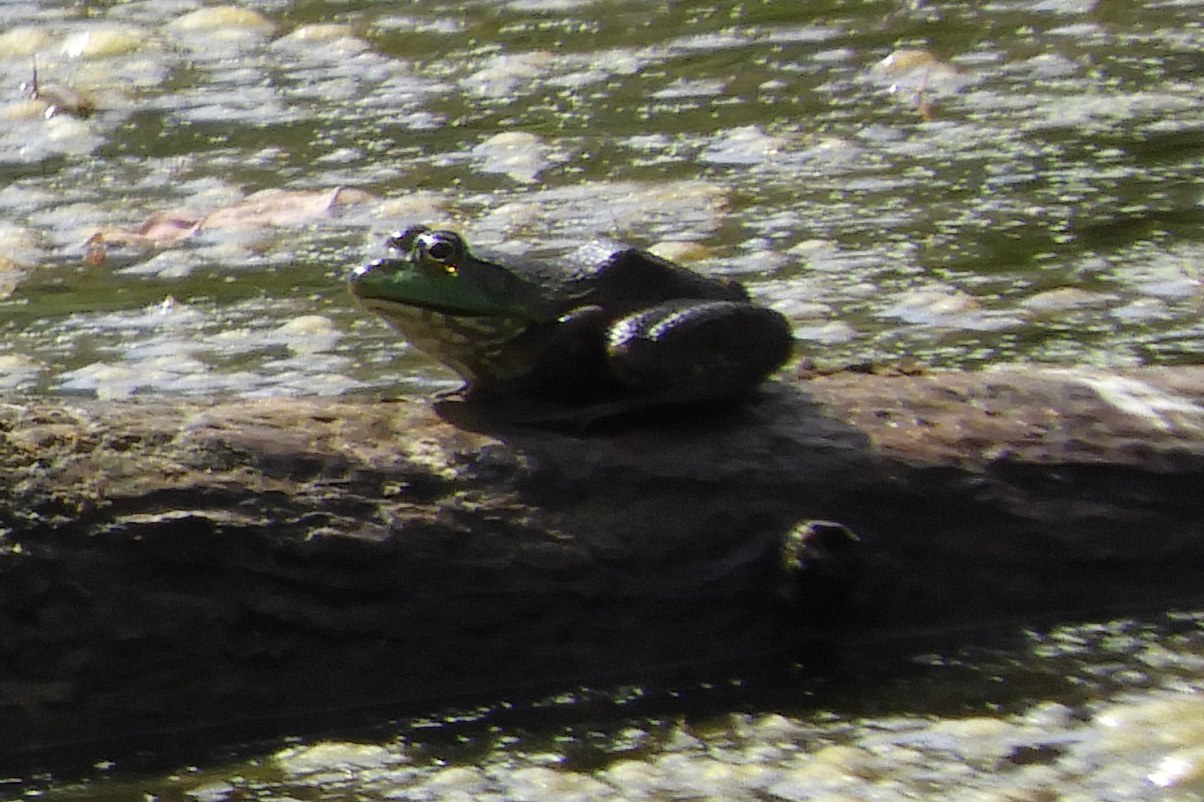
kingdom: Animalia
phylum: Chordata
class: Amphibia
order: Anura
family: Ranidae
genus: Lithobates
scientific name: Lithobates catesbeianus
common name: American bullfrog
